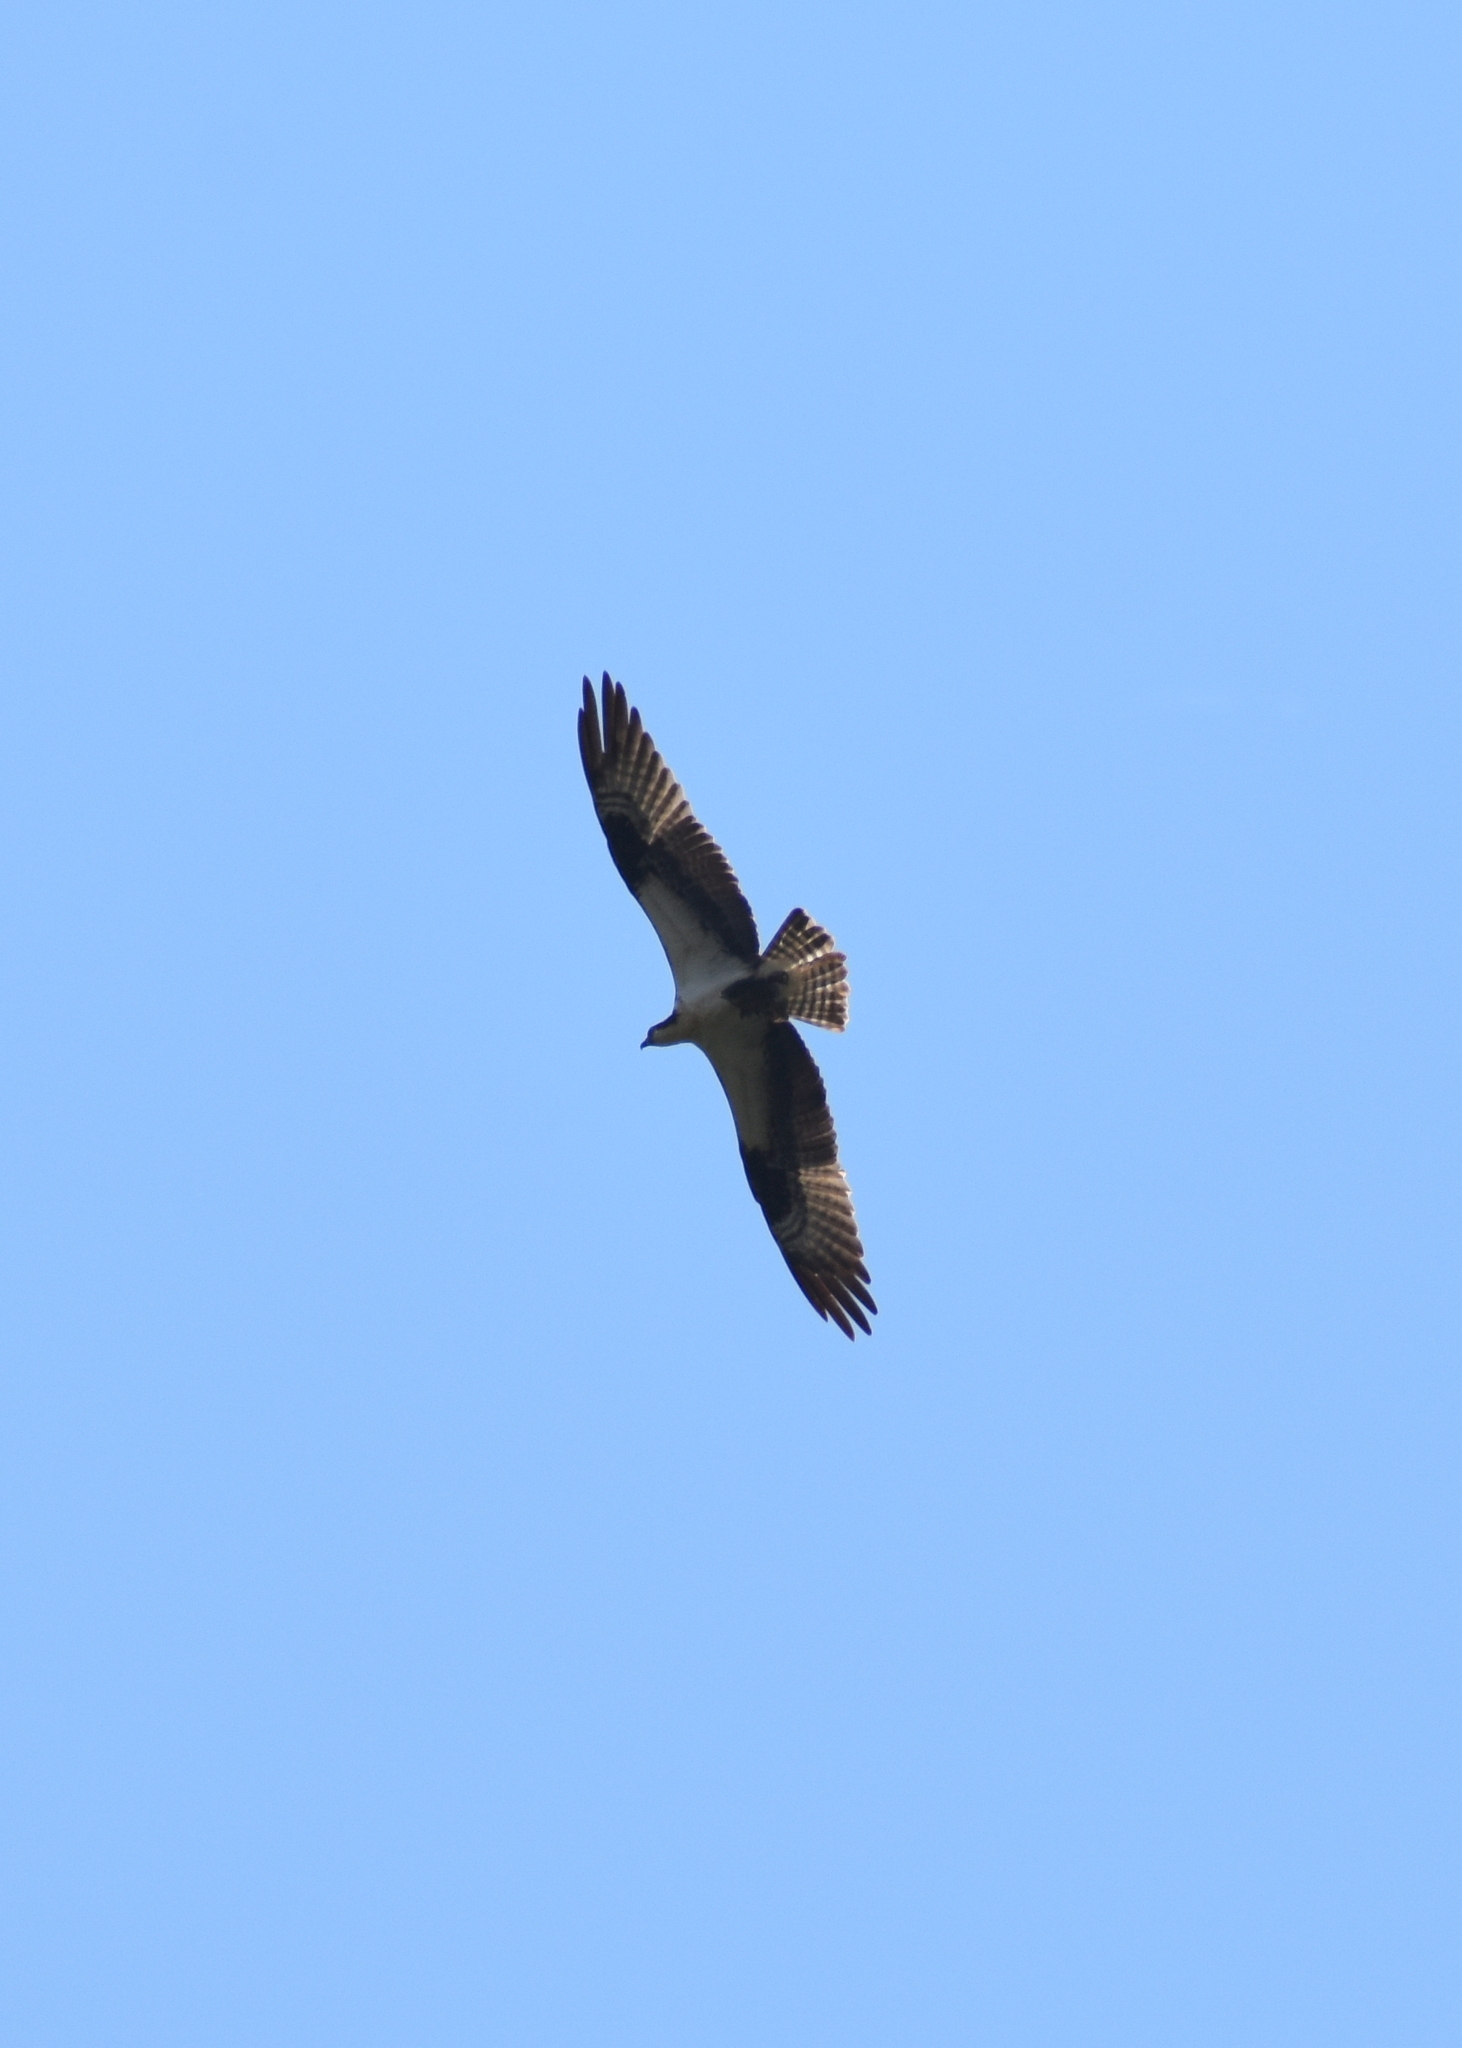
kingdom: Animalia
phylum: Chordata
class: Aves
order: Accipitriformes
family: Pandionidae
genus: Pandion
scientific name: Pandion haliaetus
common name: Osprey
